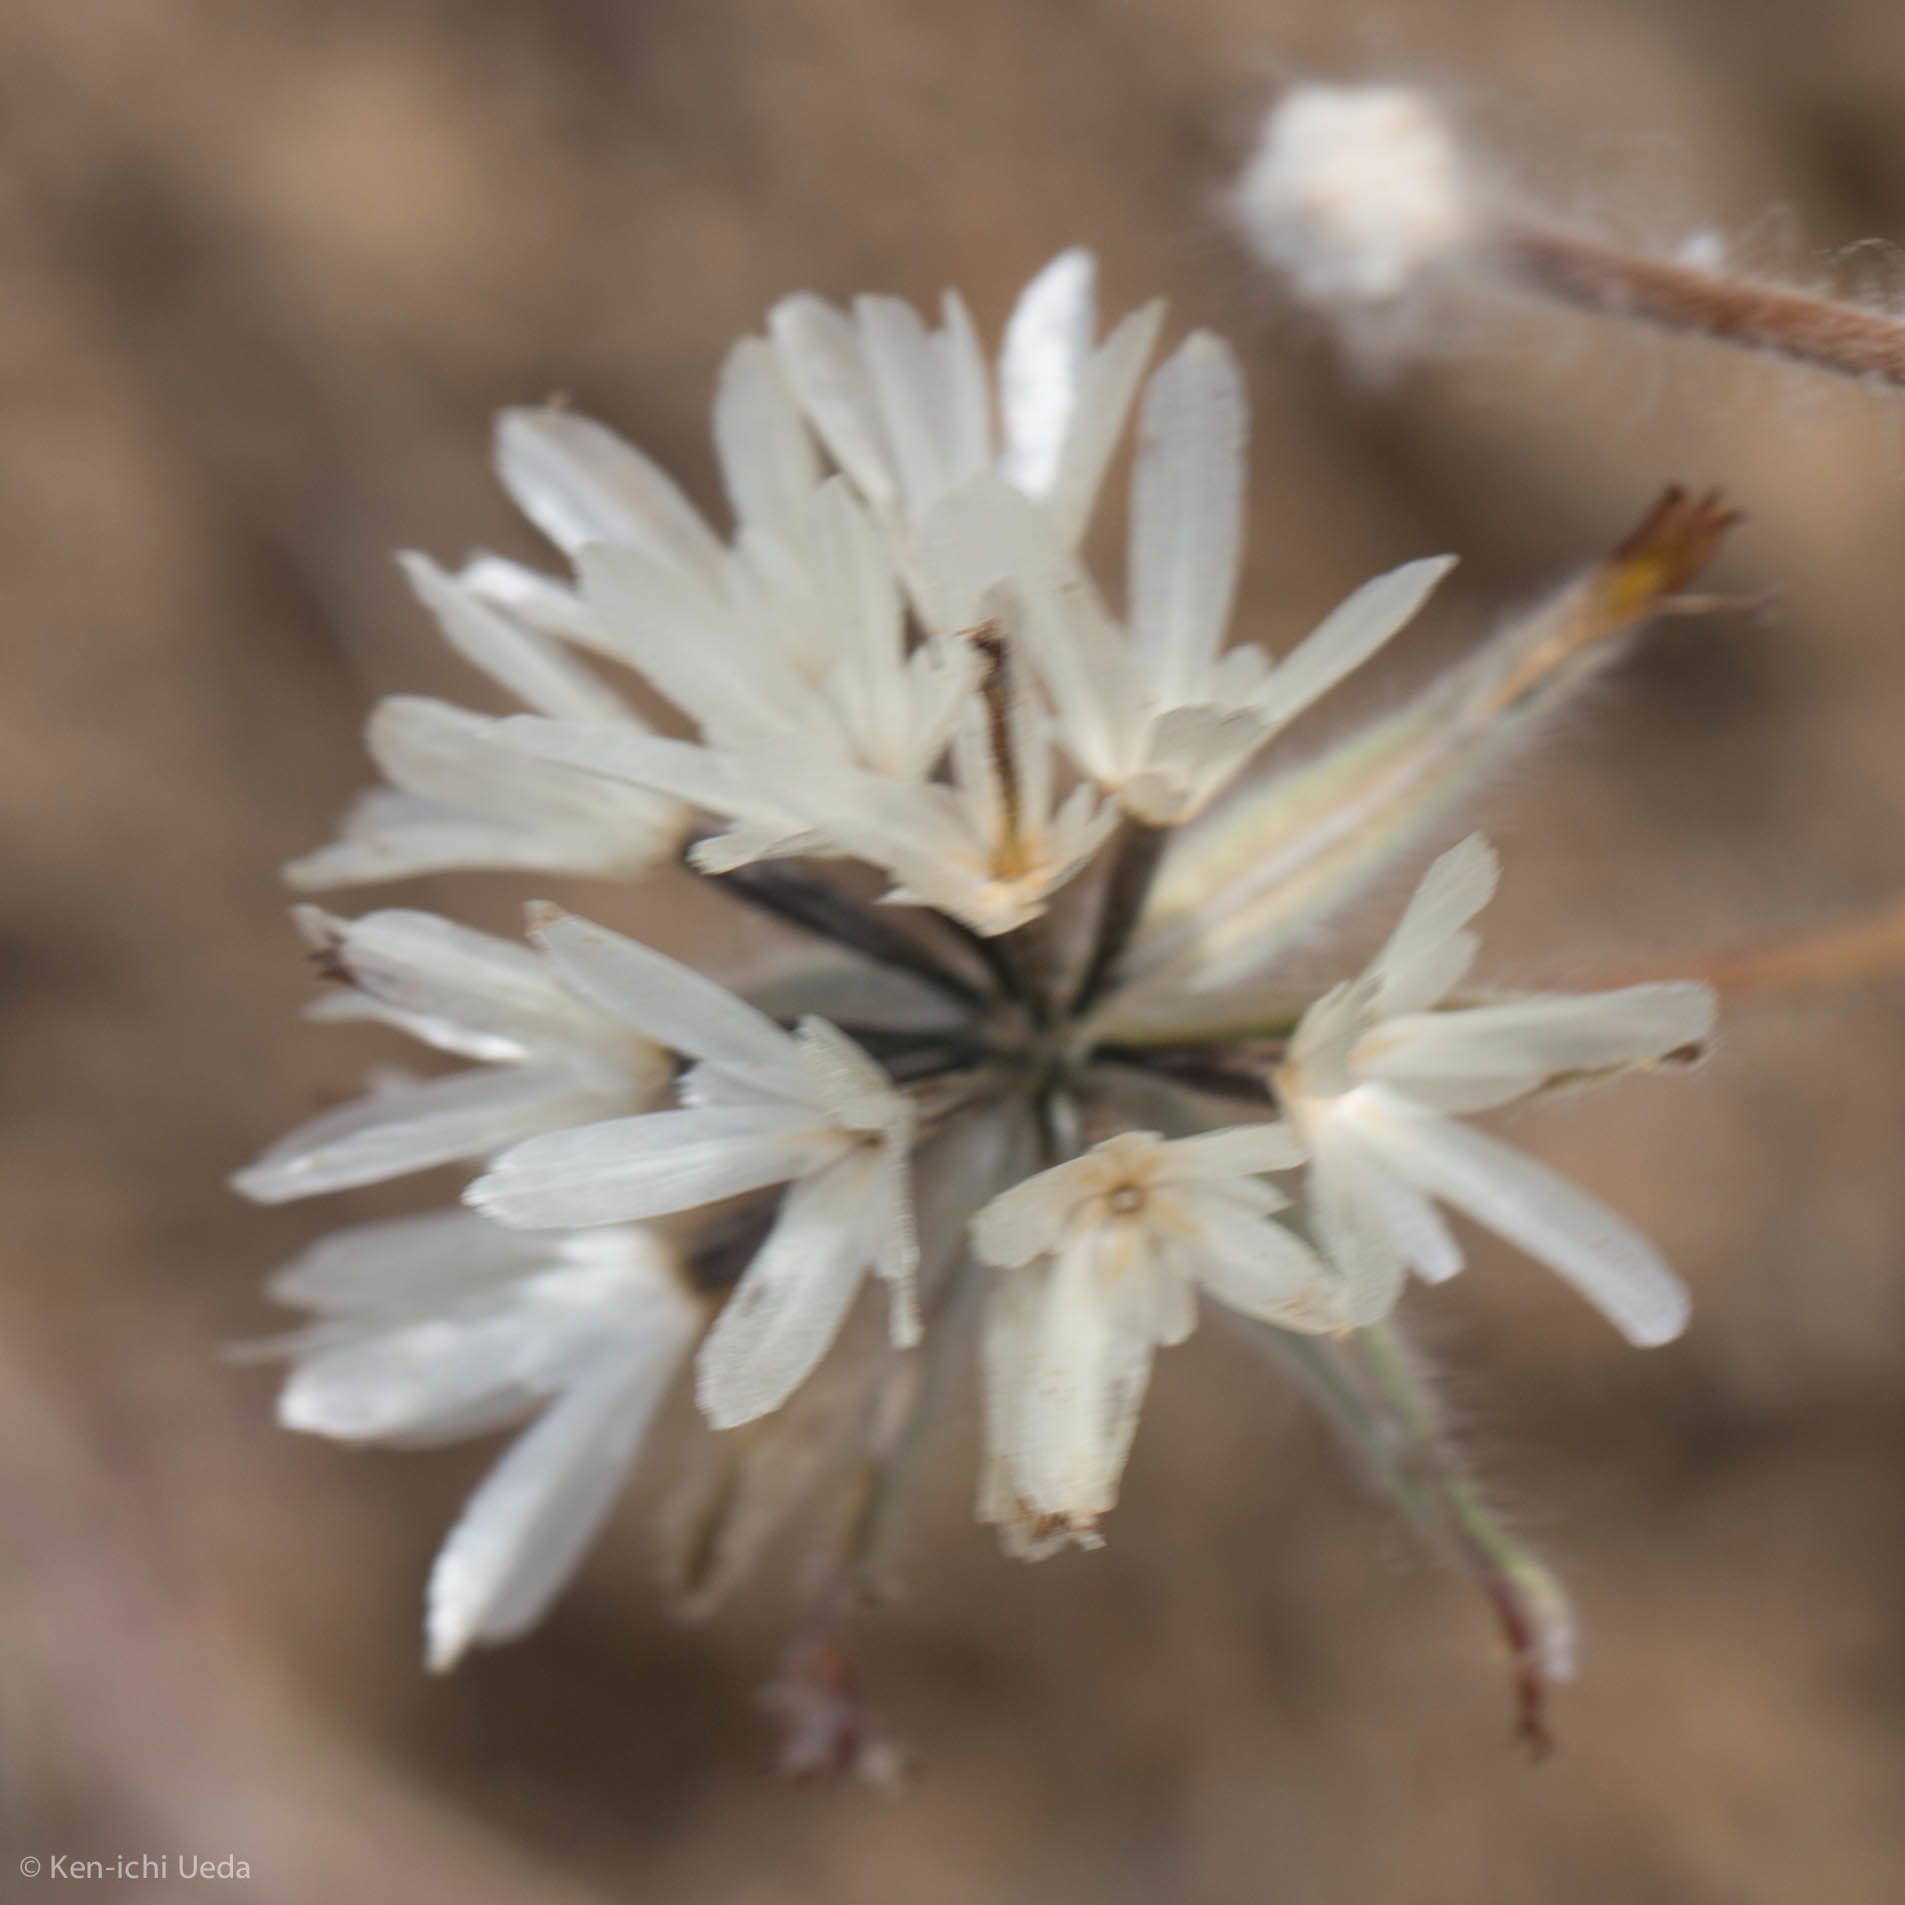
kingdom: Plantae
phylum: Tracheophyta
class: Magnoliopsida
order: Asterales
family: Asteraceae
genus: Achyrachaena
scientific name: Achyrachaena mollis
